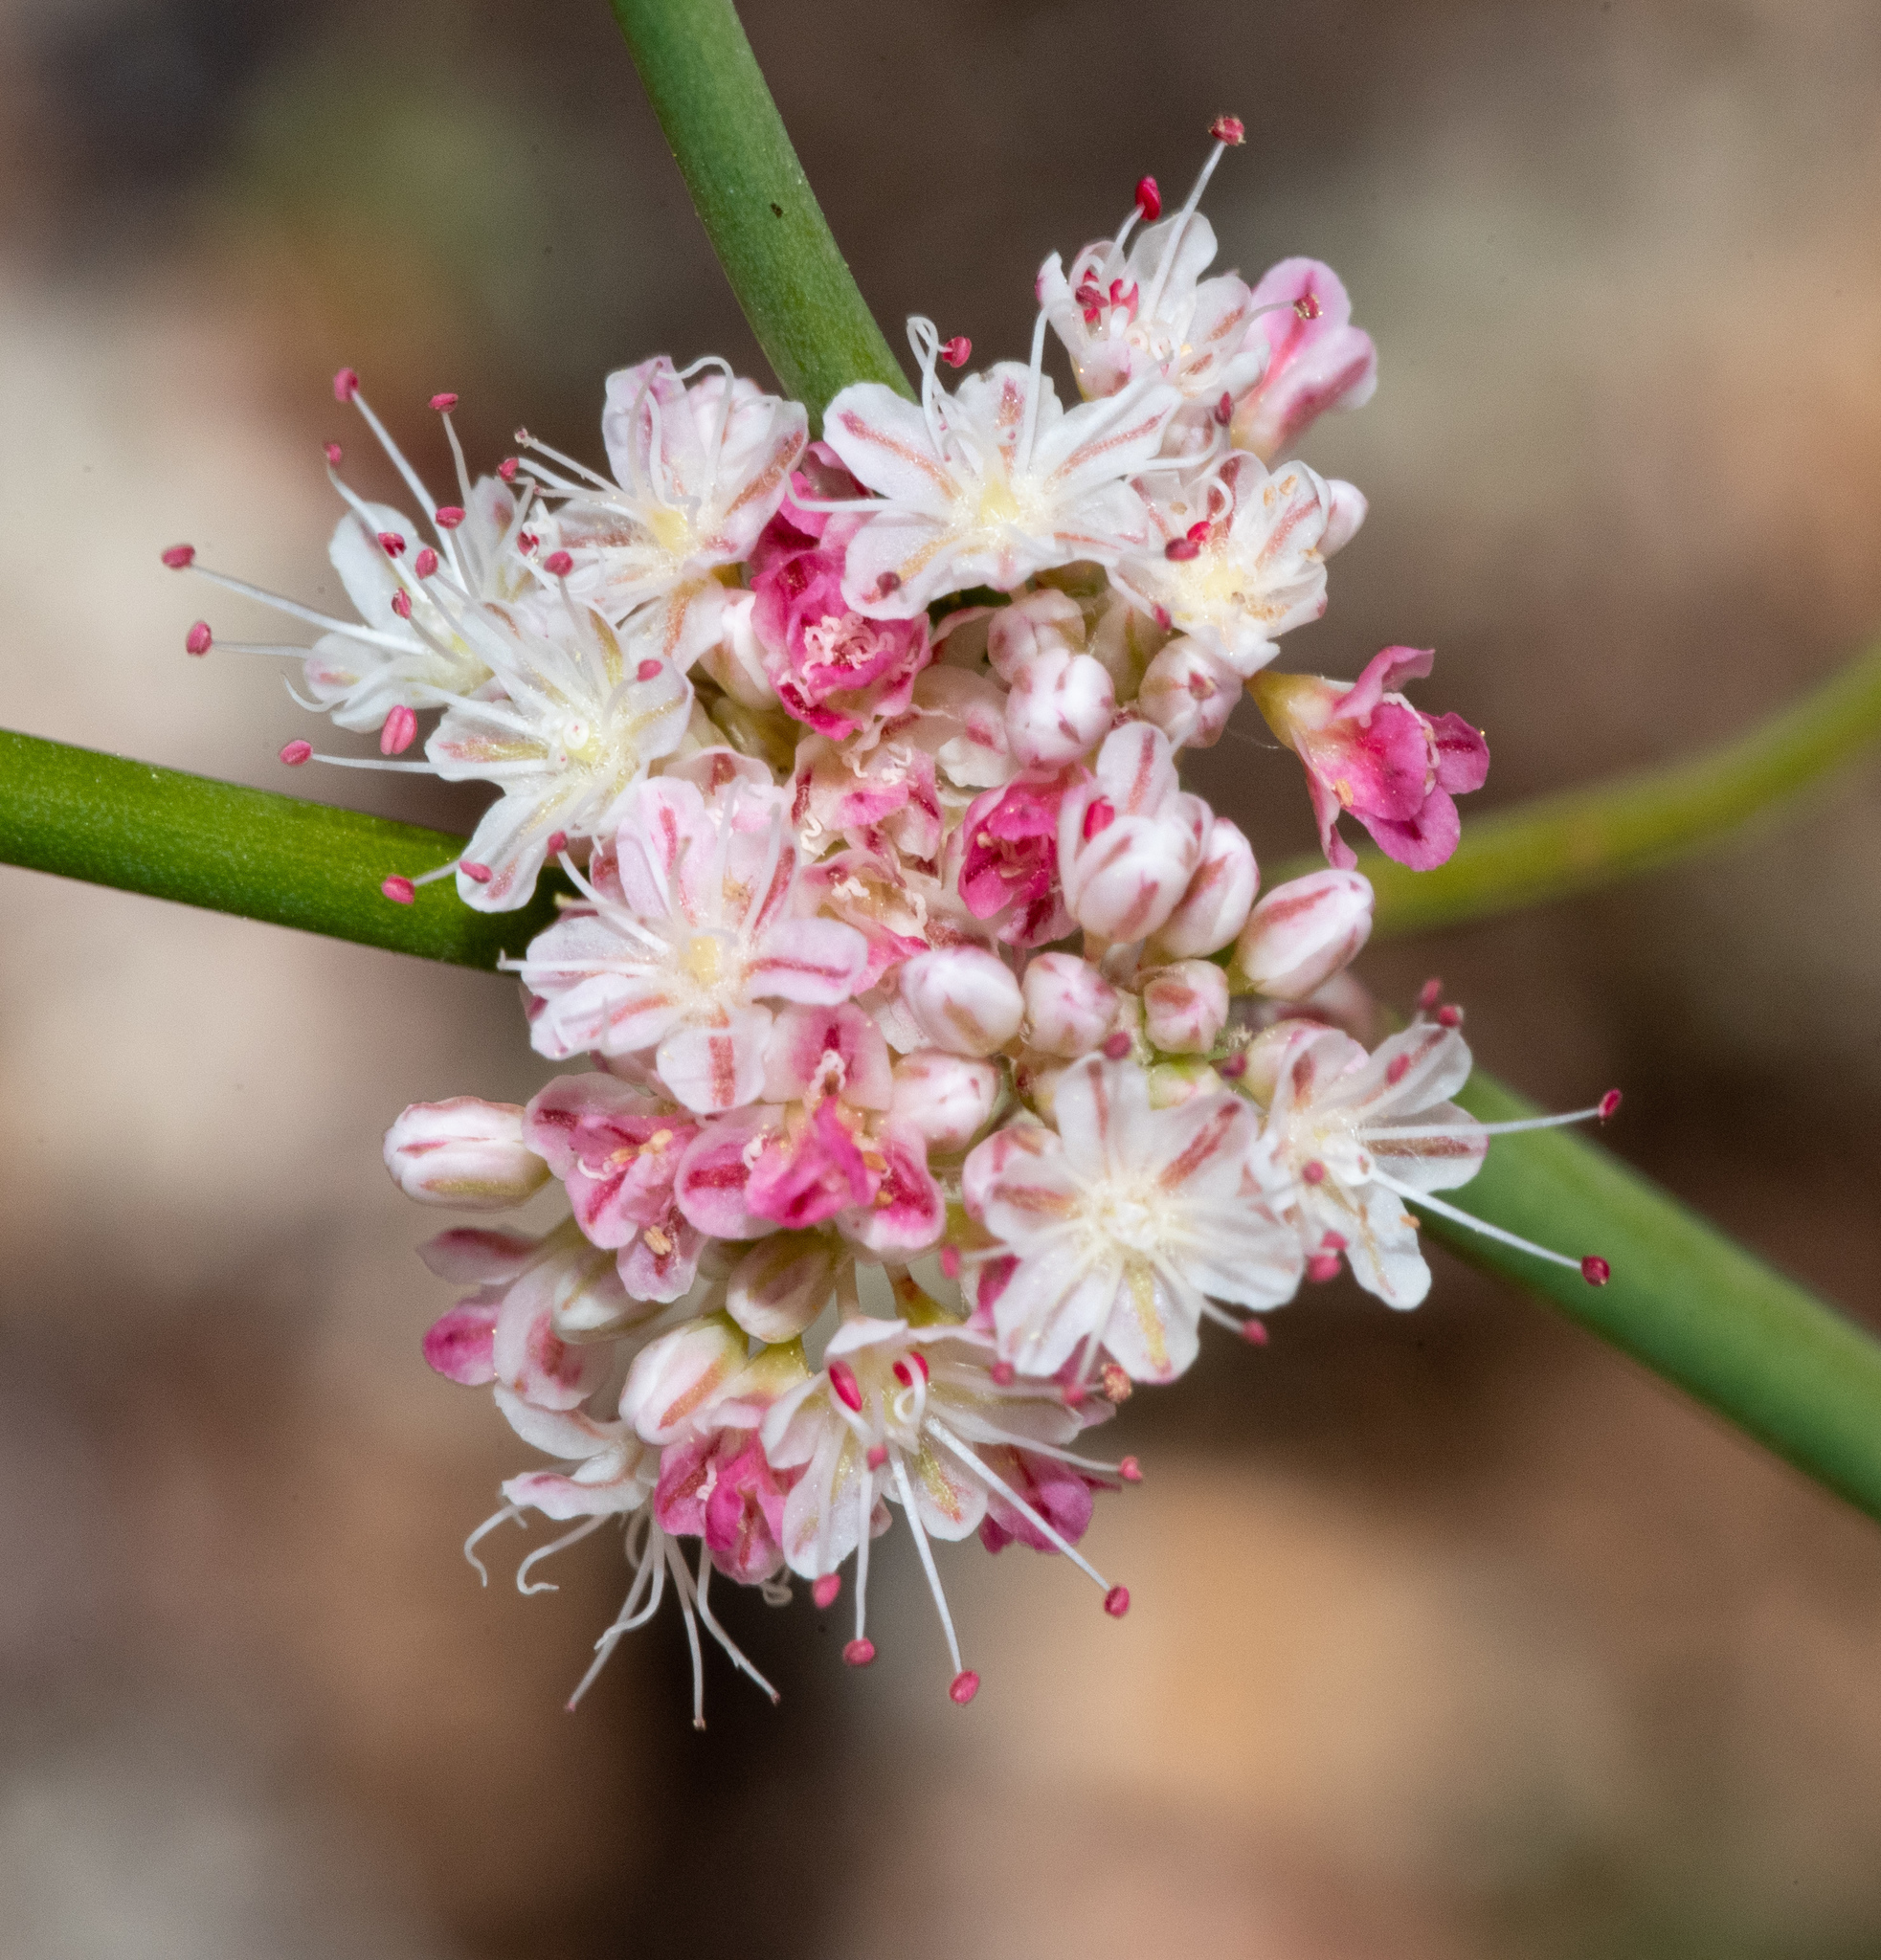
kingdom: Plantae
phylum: Tracheophyta
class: Magnoliopsida
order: Caryophyllales
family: Polygonaceae
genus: Eriogonum
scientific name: Eriogonum nudum
